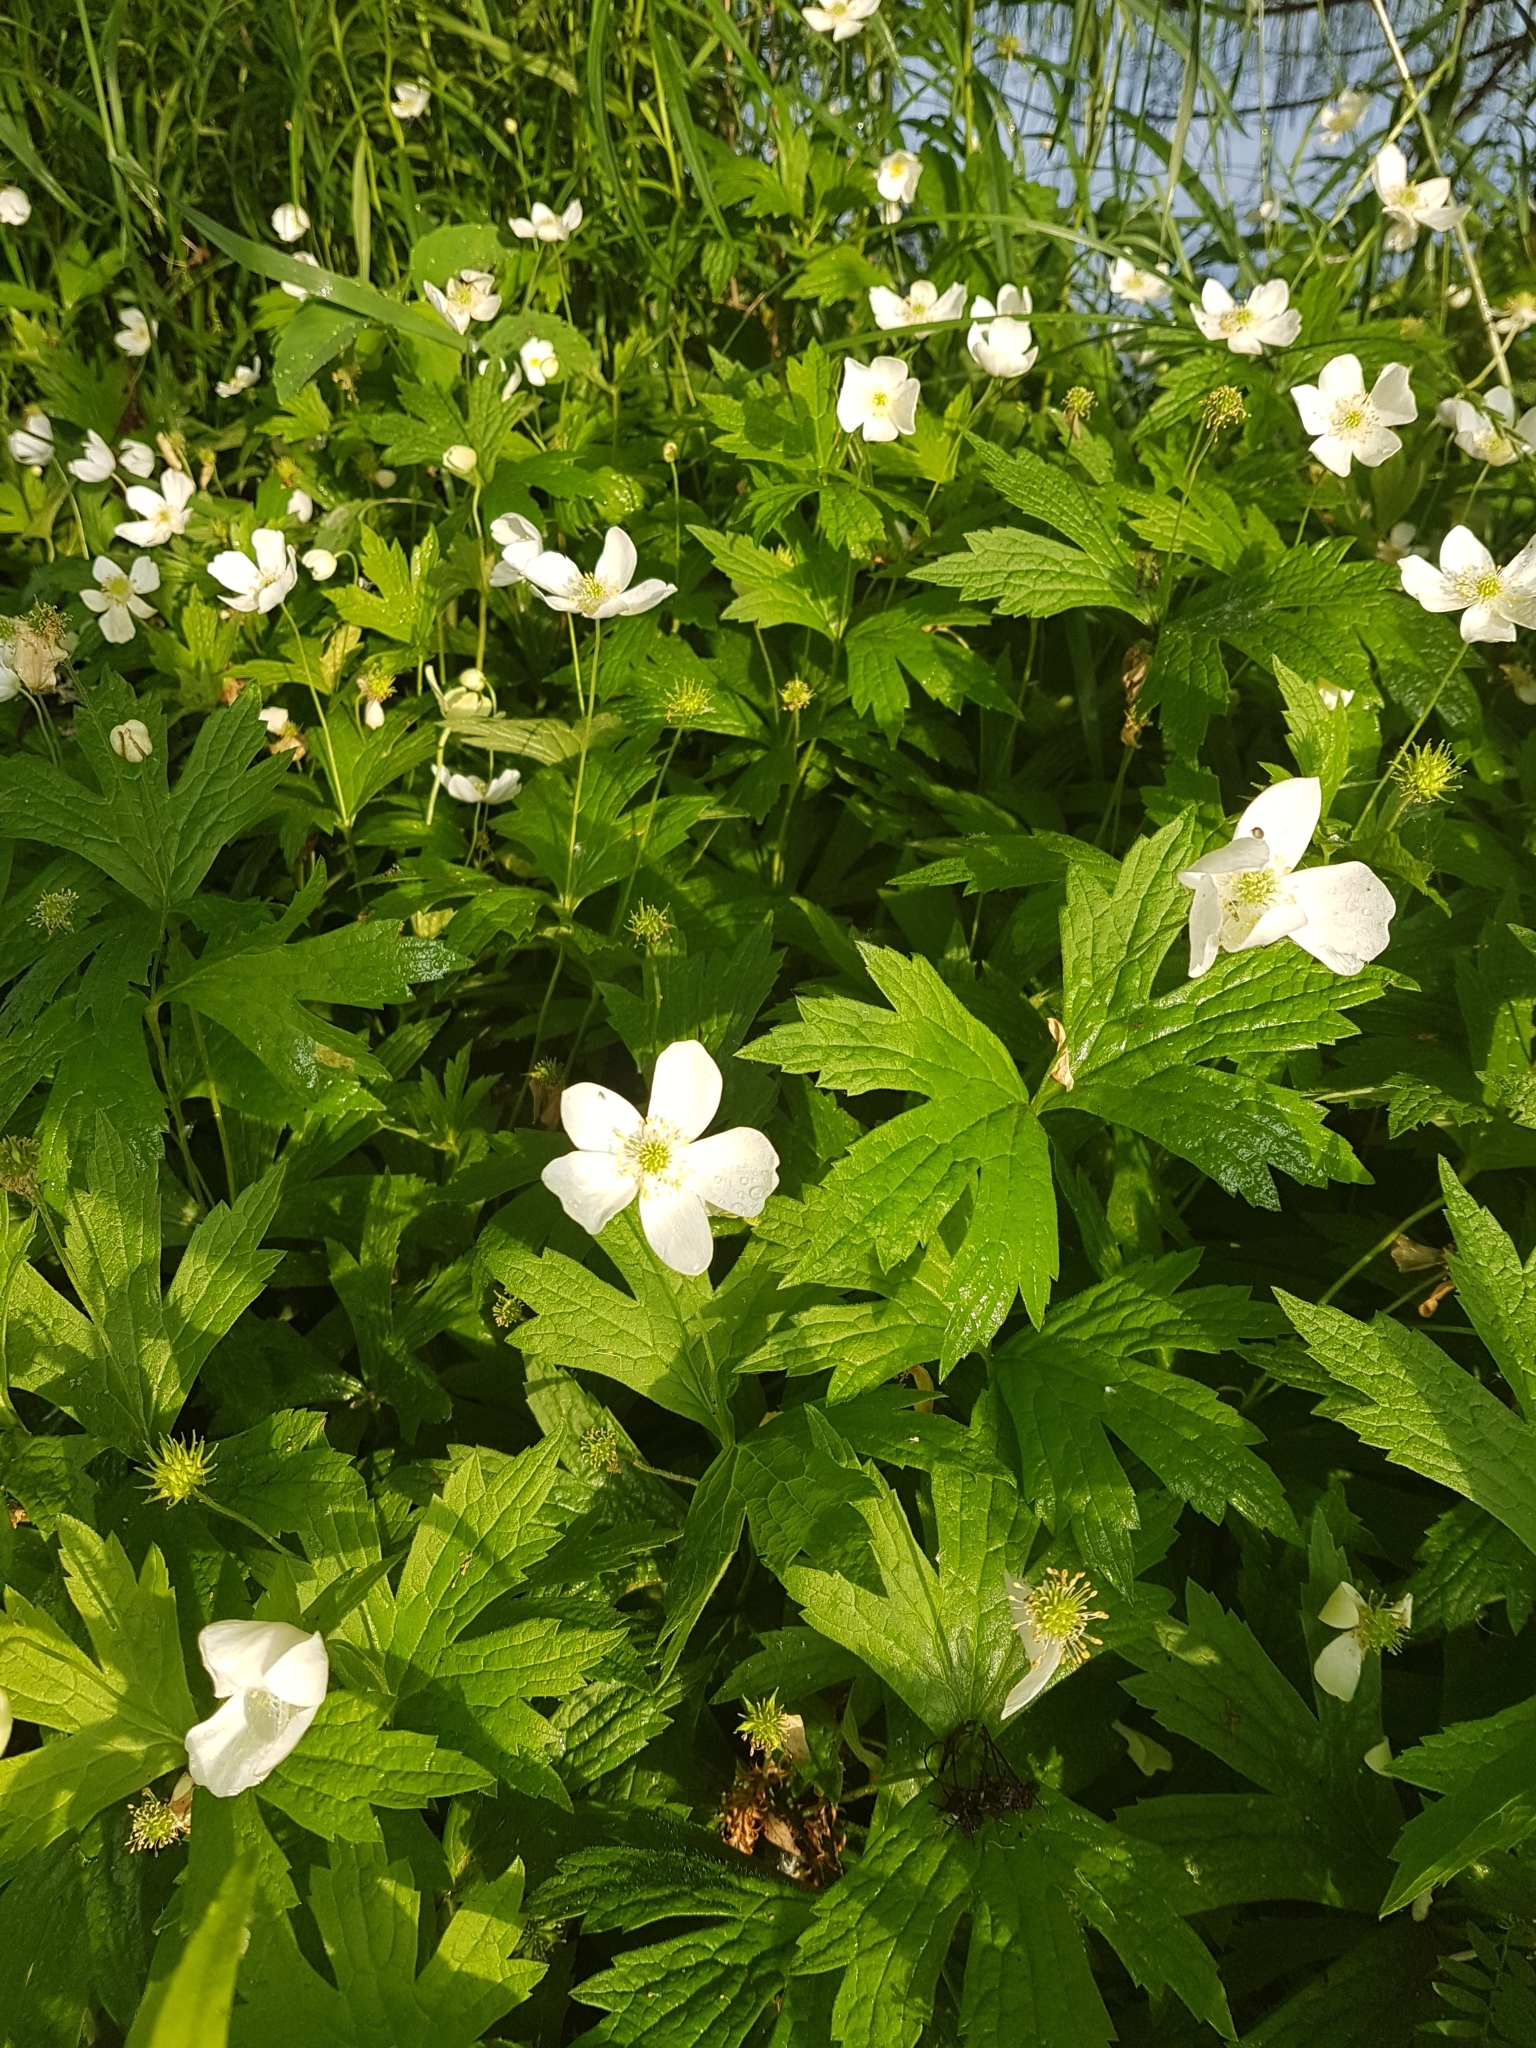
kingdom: Plantae
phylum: Tracheophyta
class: Magnoliopsida
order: Ranunculales
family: Ranunculaceae
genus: Anemonastrum
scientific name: Anemonastrum canadense
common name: Canada anemone
